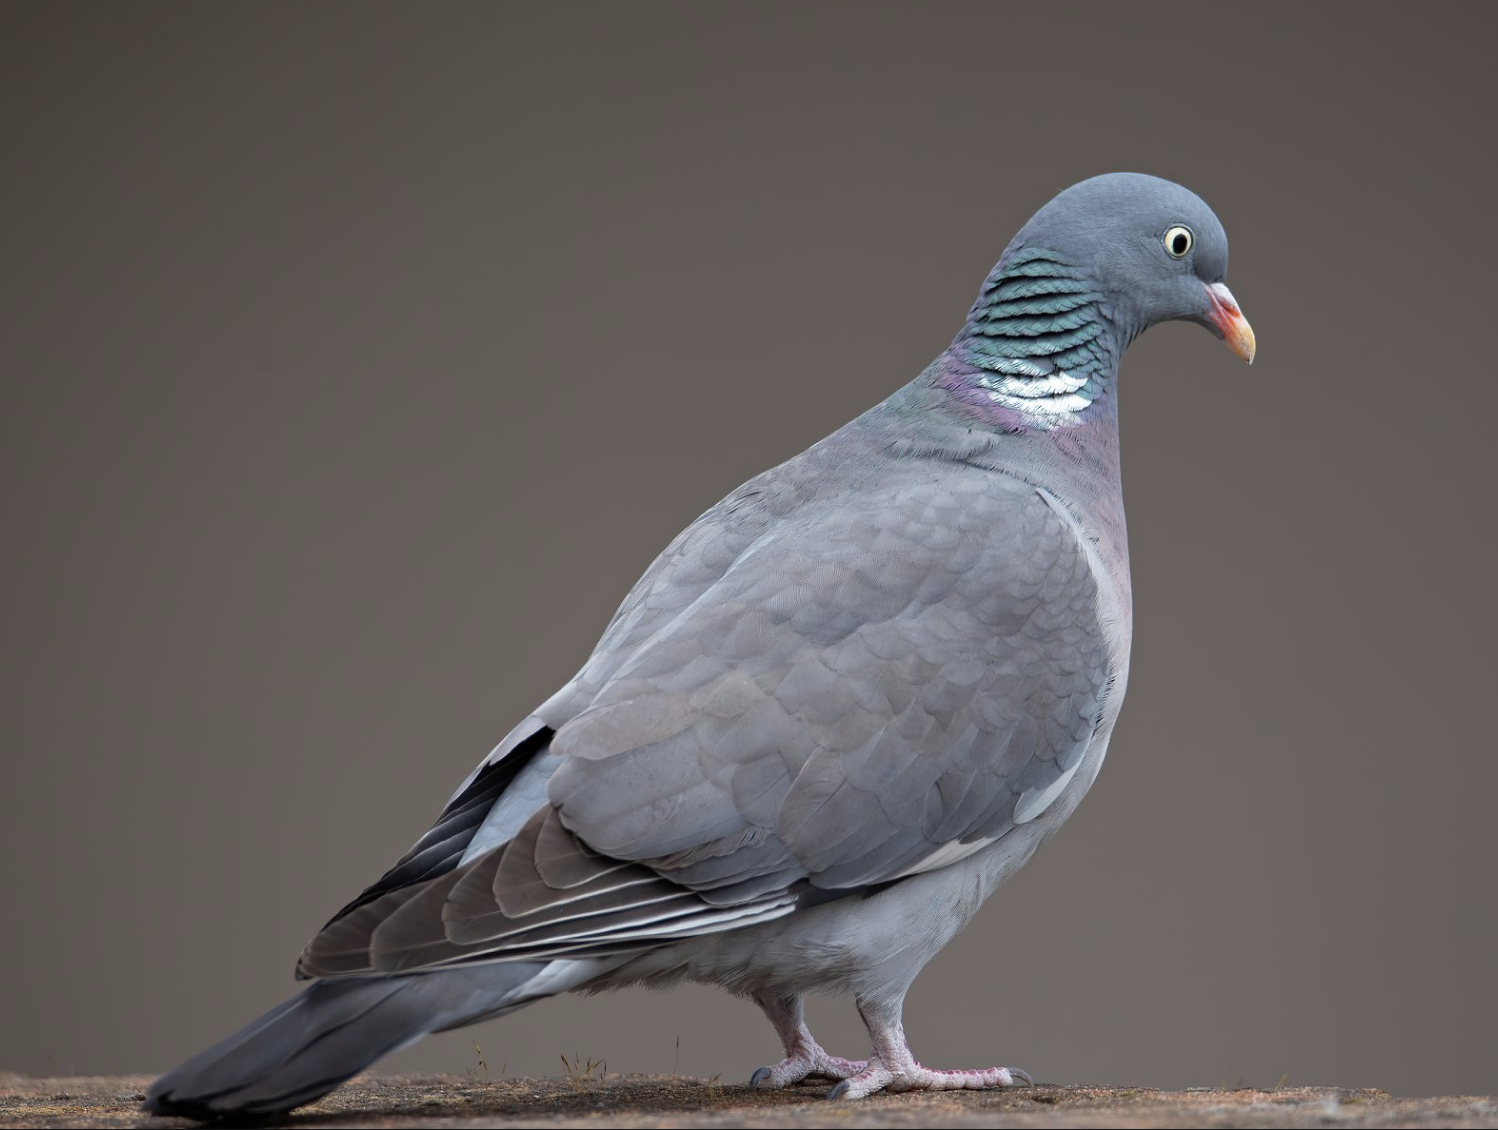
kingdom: Animalia
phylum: Chordata
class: Aves
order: Columbiformes
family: Columbidae
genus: Columba
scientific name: Columba palumbus
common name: Common wood pigeon
